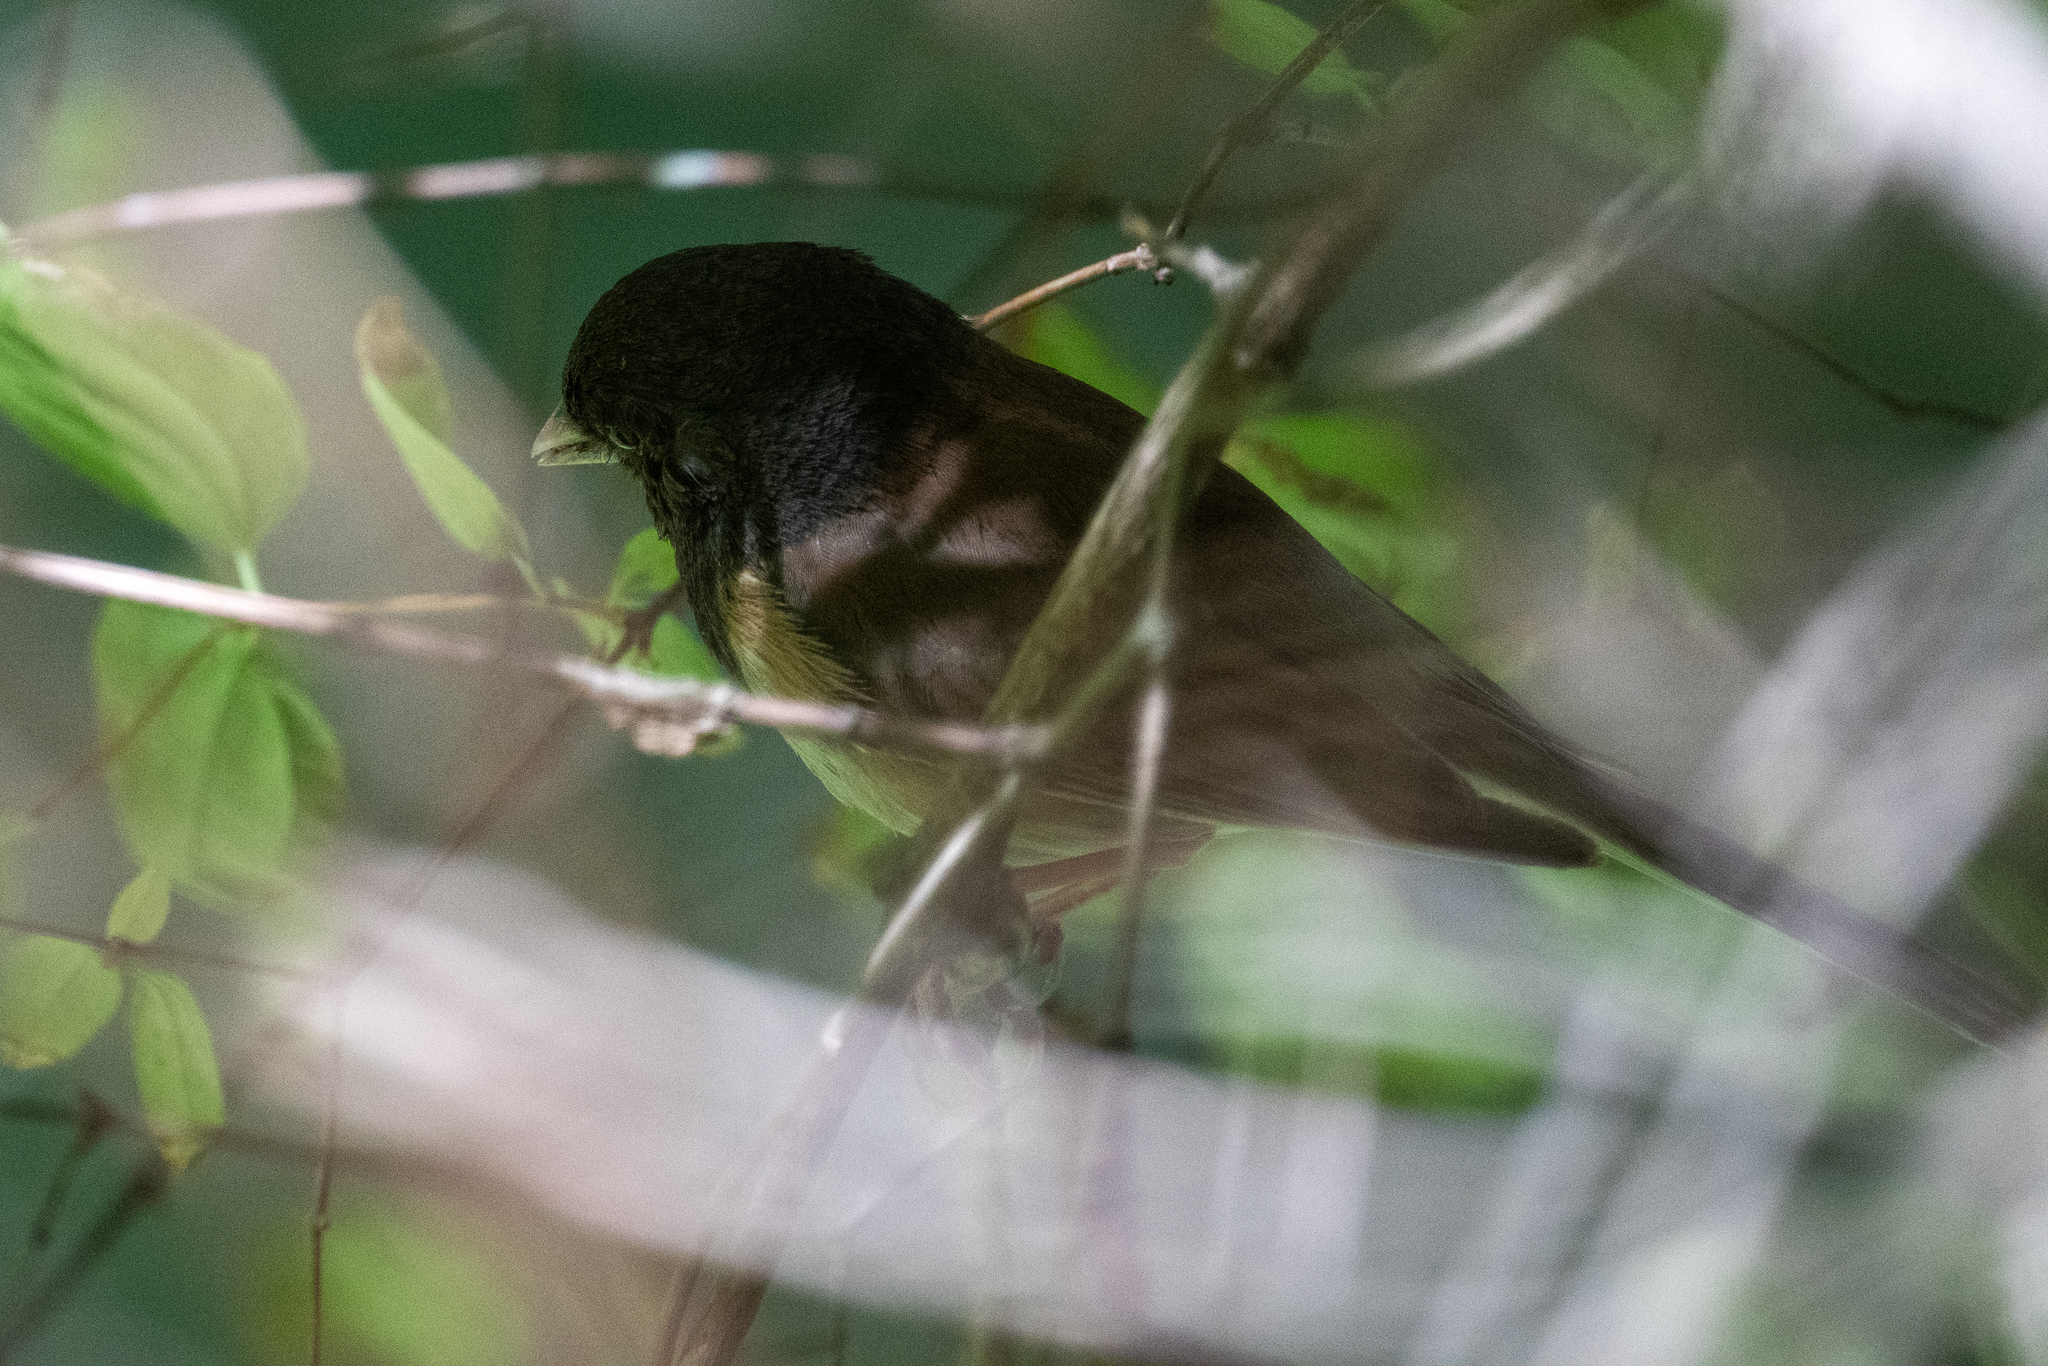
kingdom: Animalia
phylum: Chordata
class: Aves
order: Passeriformes
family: Passerellidae
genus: Junco
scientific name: Junco hyemalis
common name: Dark-eyed junco
